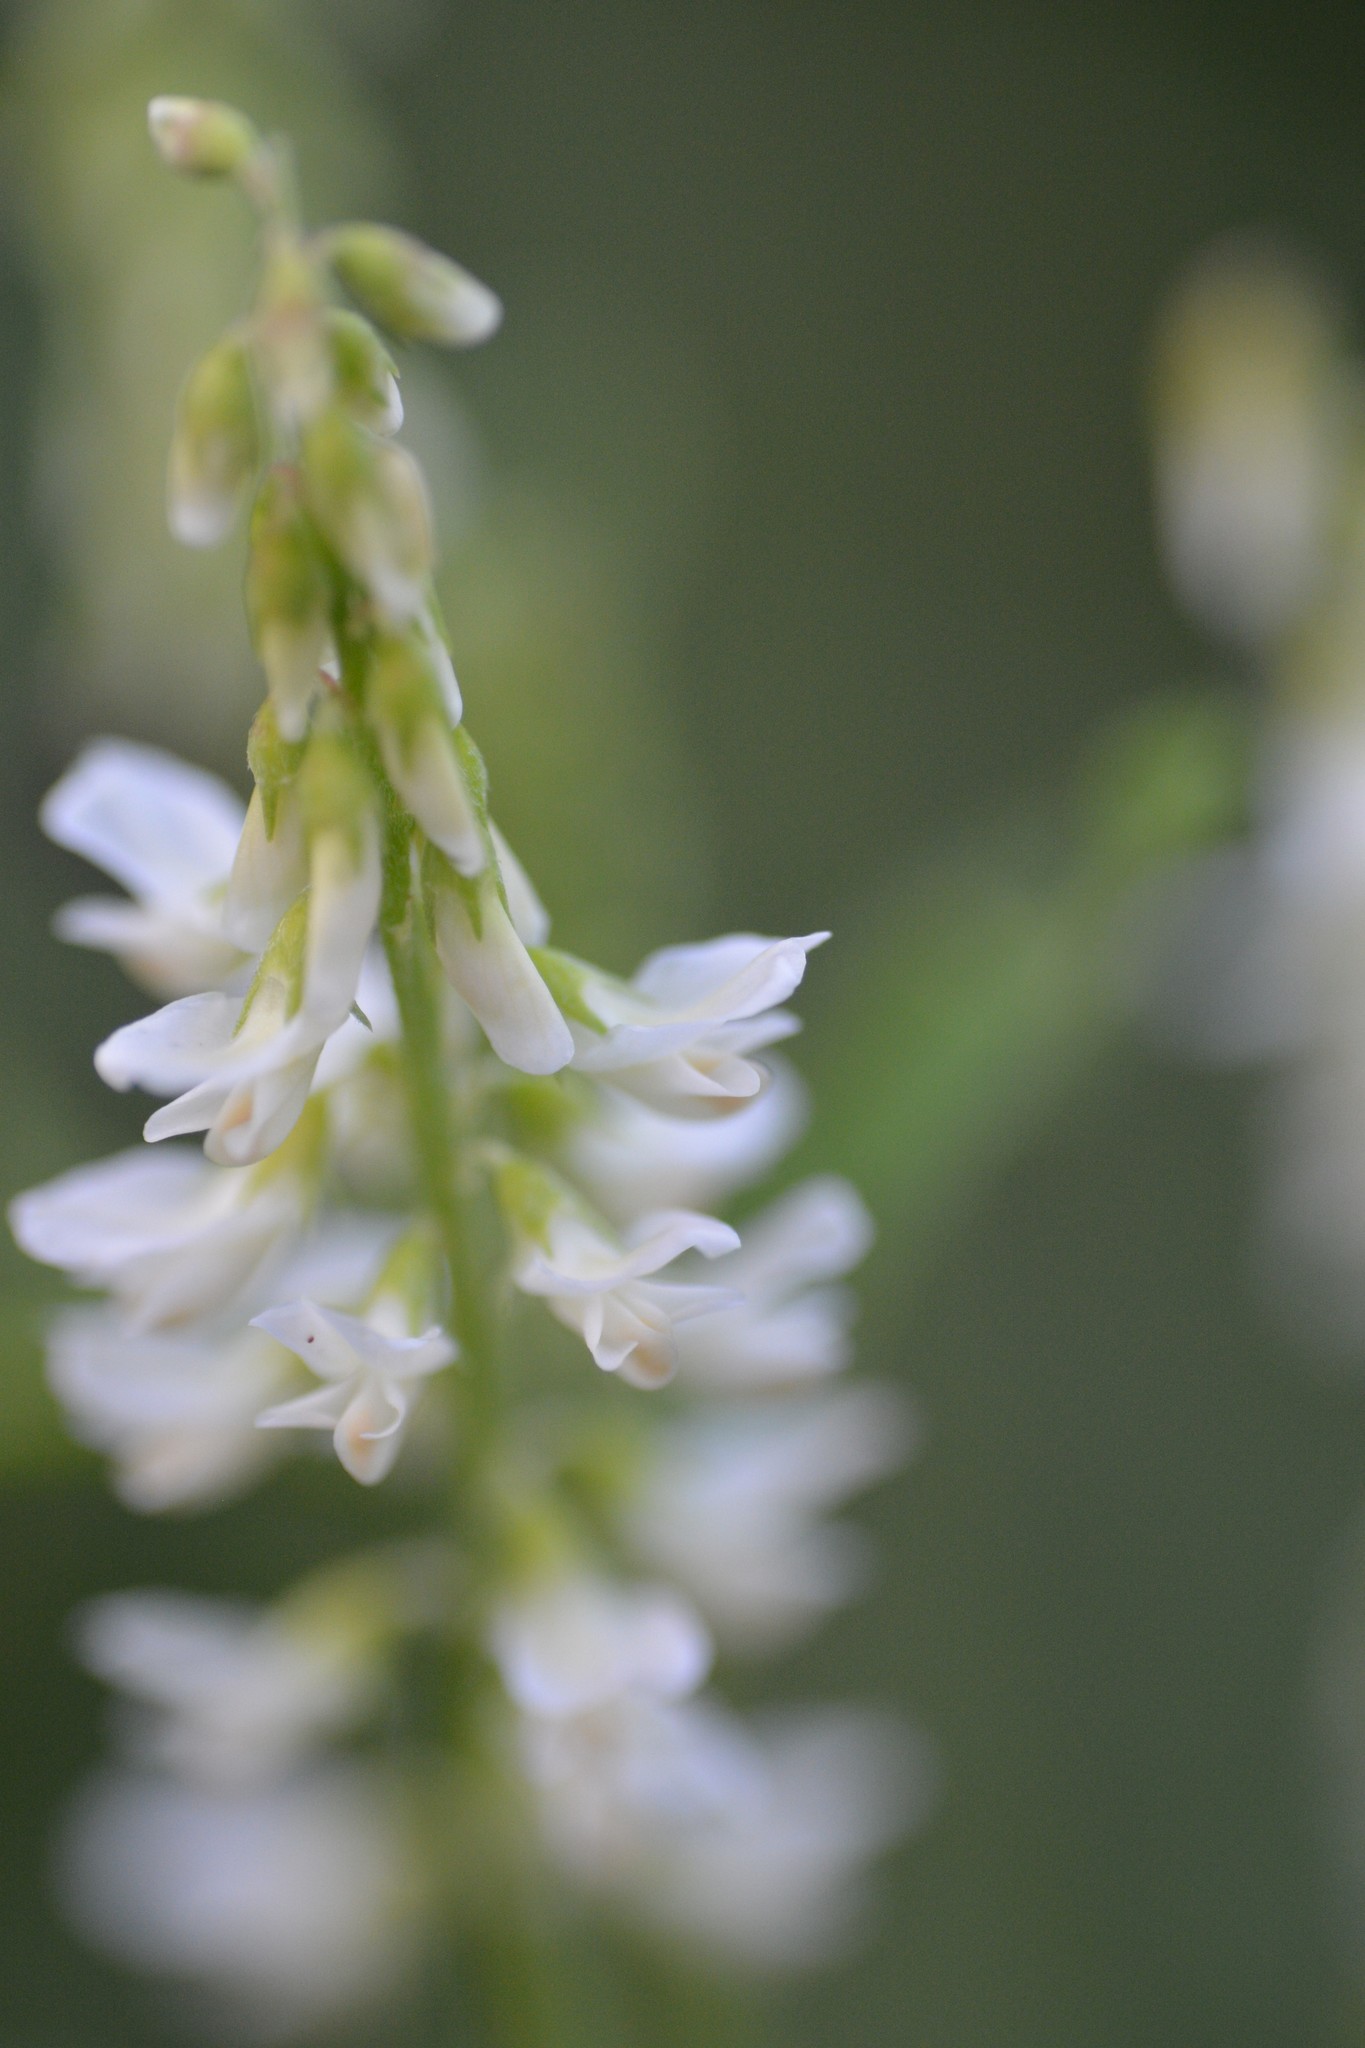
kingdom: Plantae
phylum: Tracheophyta
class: Magnoliopsida
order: Fabales
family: Fabaceae
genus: Melilotus
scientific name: Melilotus albus
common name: White melilot
